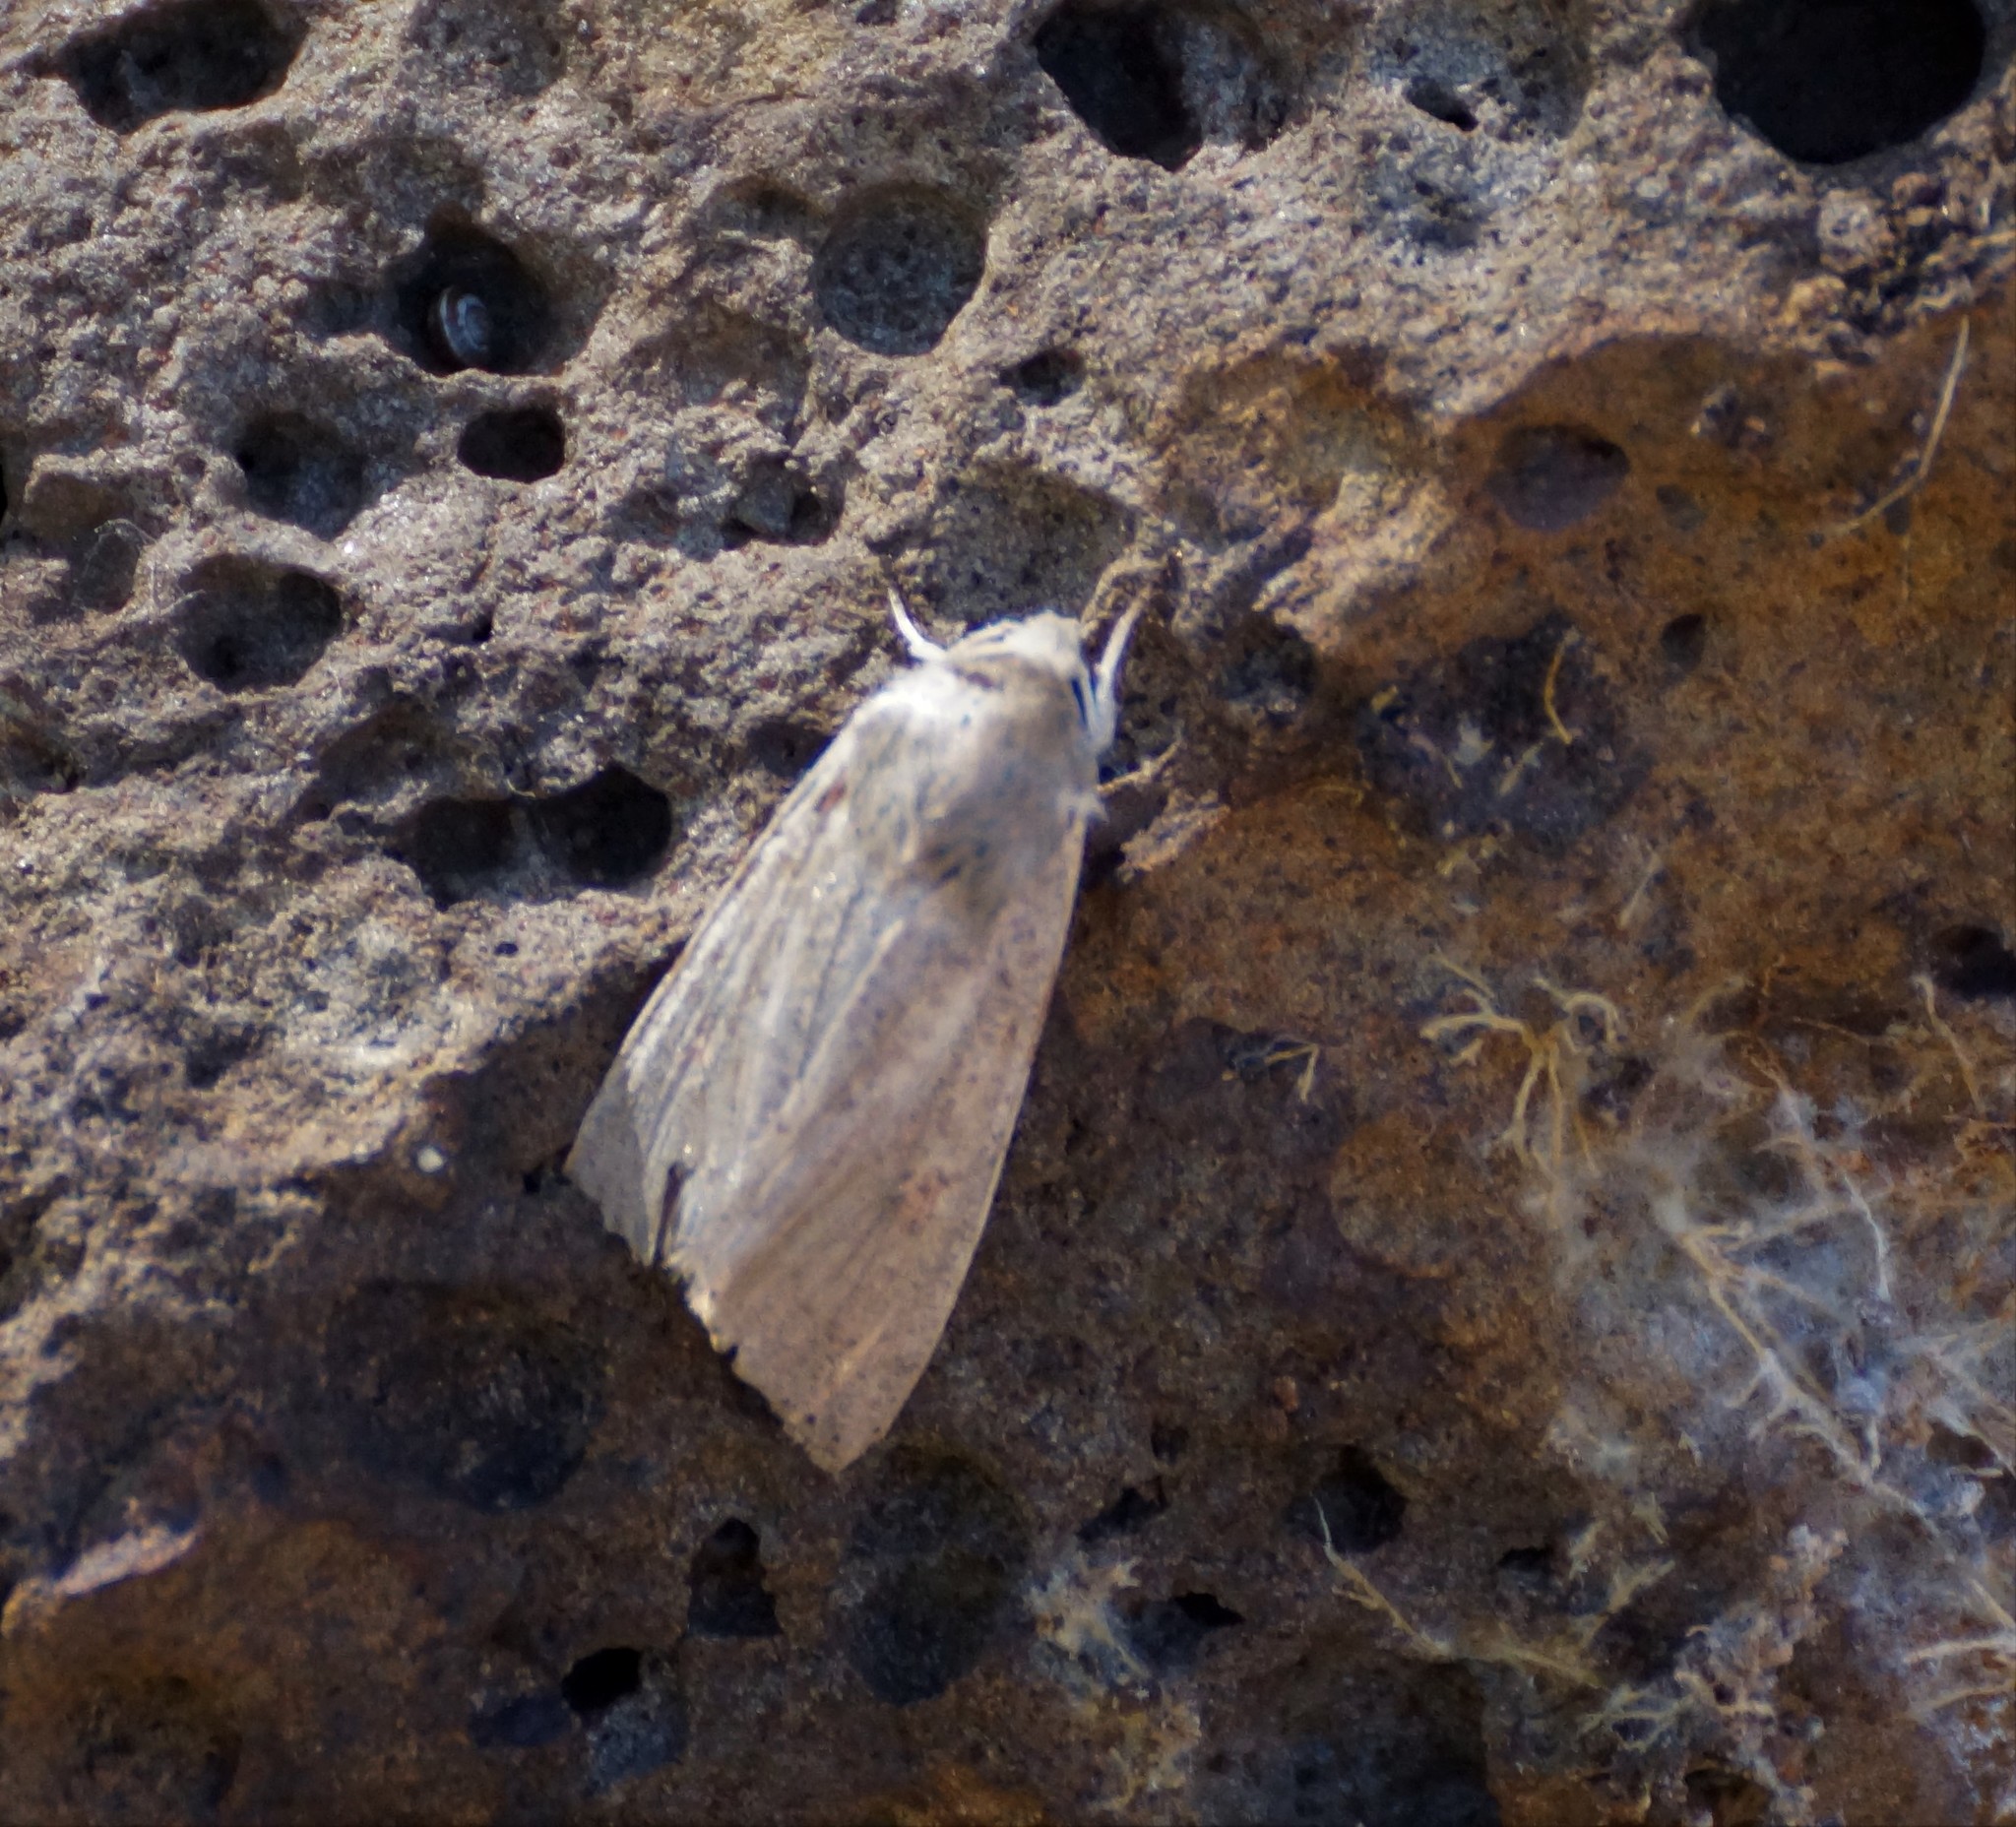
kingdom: Animalia
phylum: Arthropoda
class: Insecta
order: Lepidoptera
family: Noctuidae
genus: Mythimna
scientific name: Mythimna convecta
